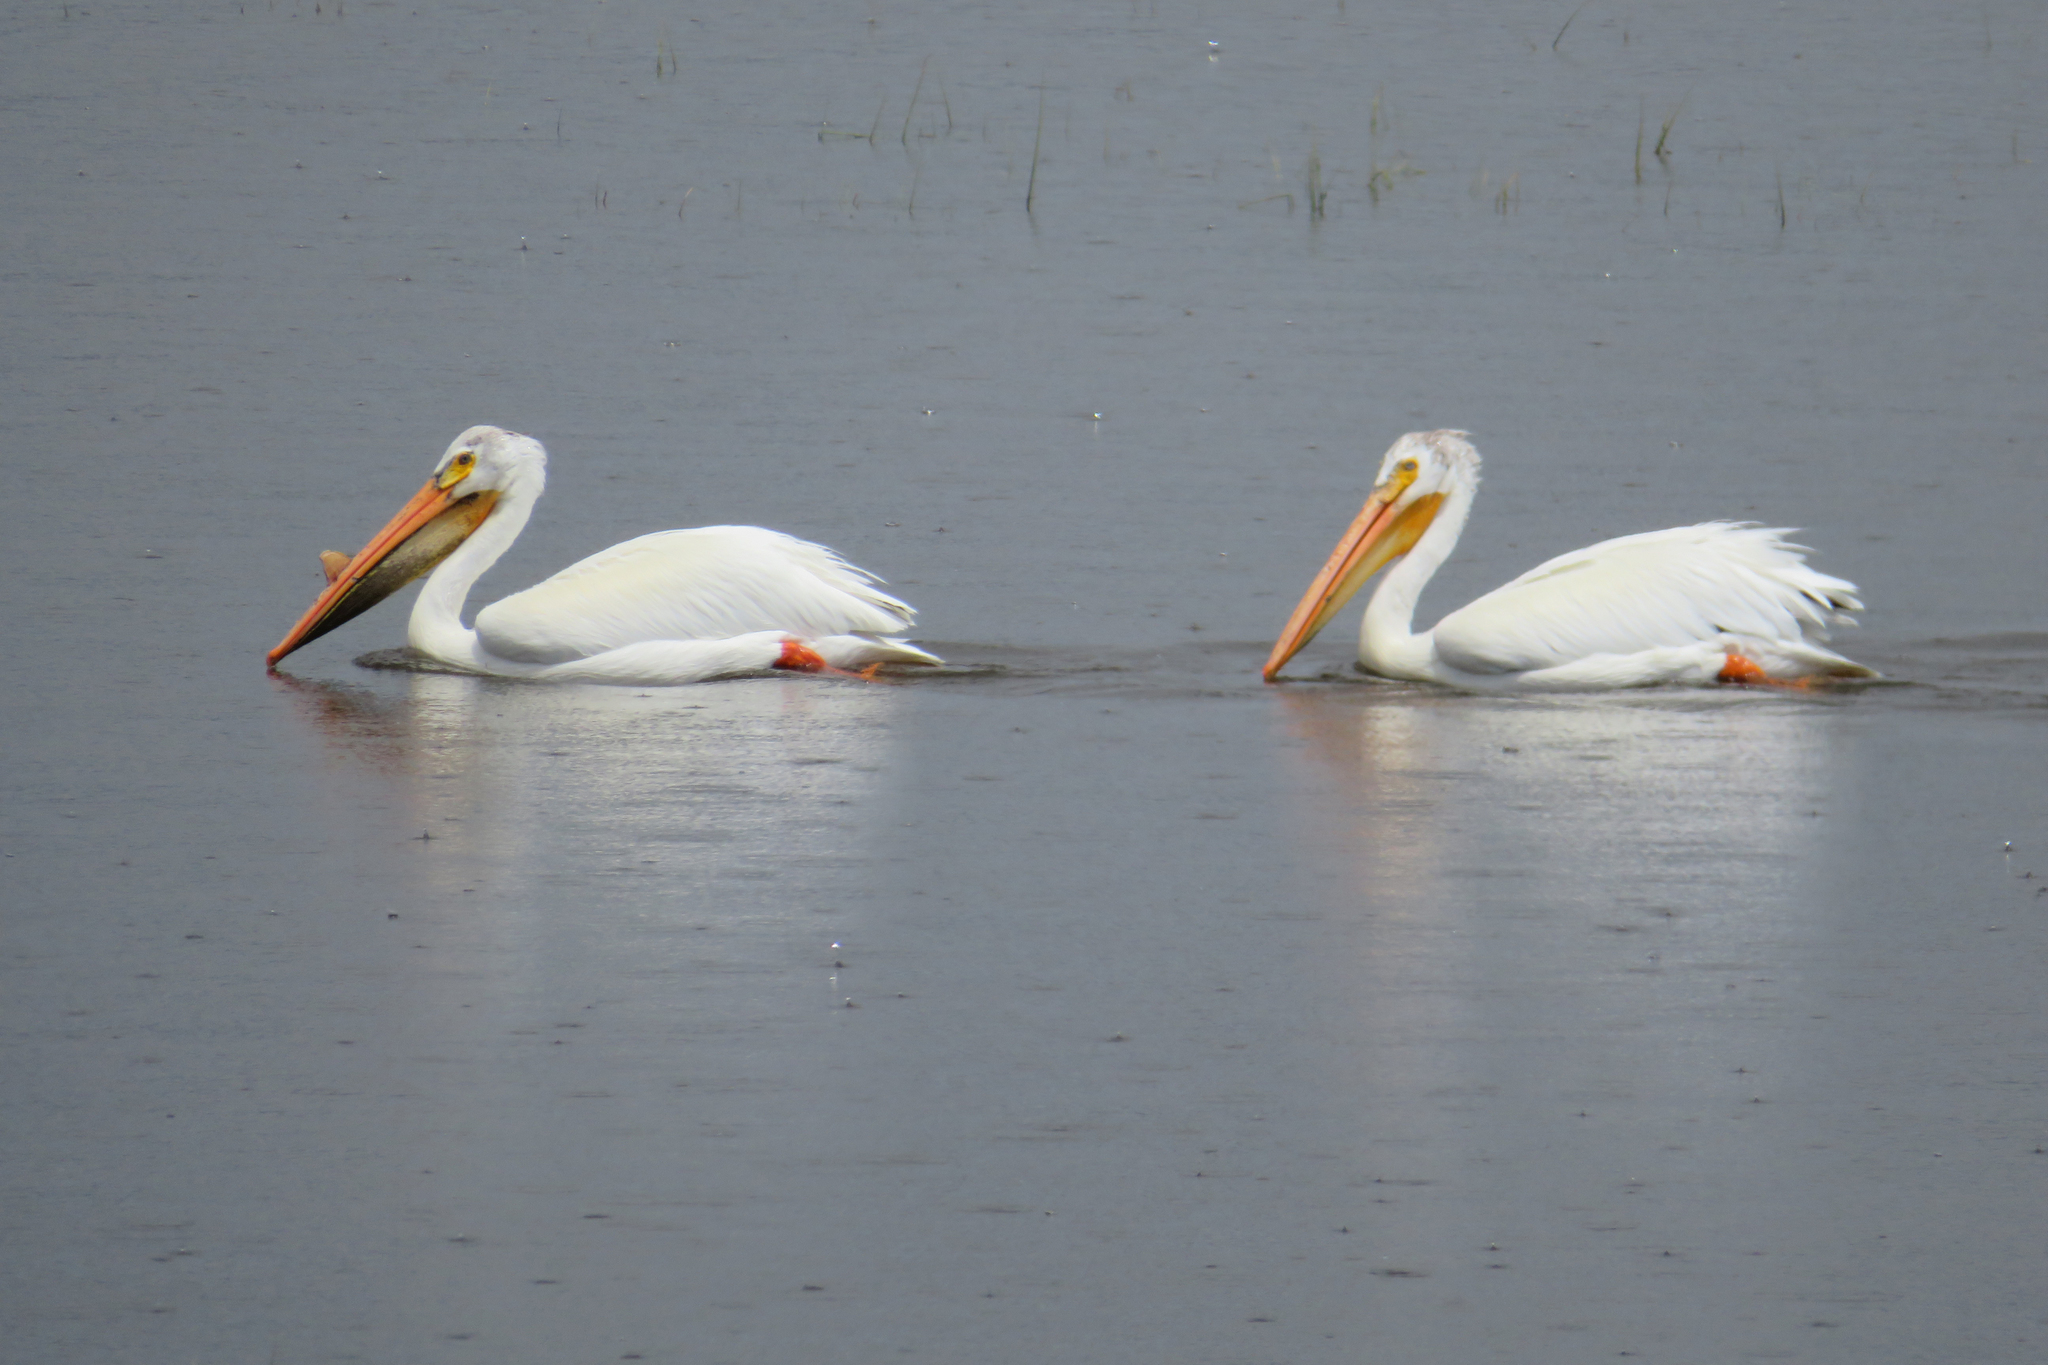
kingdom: Animalia
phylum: Chordata
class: Aves
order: Pelecaniformes
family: Pelecanidae
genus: Pelecanus
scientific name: Pelecanus erythrorhynchos
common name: American white pelican
